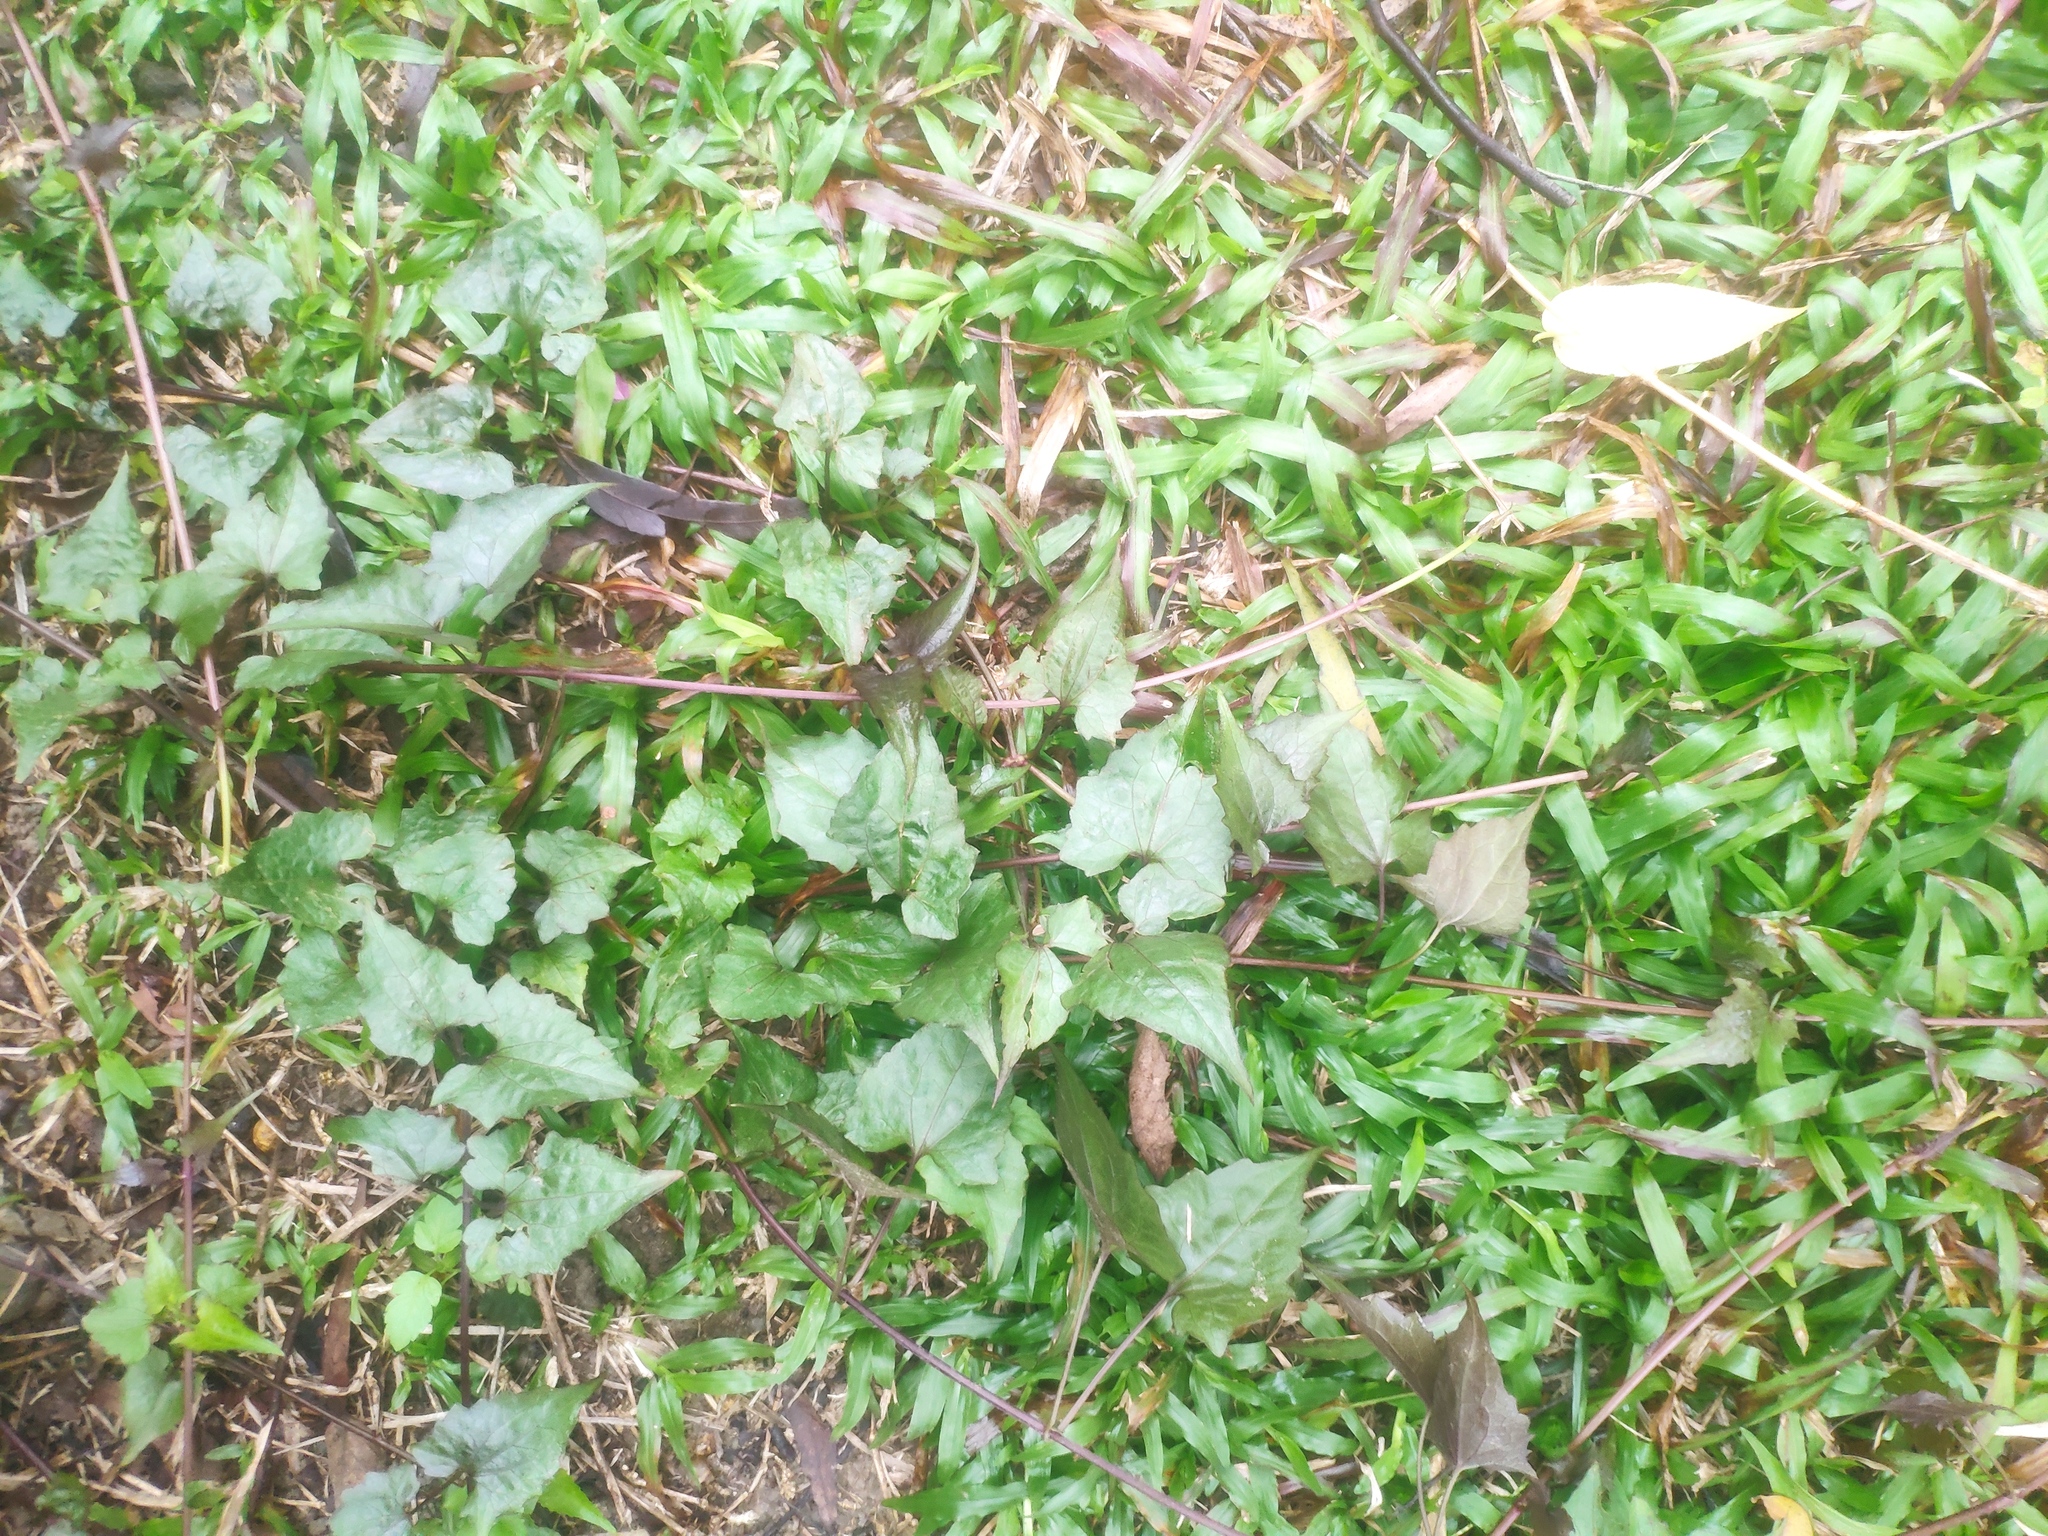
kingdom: Plantae
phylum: Tracheophyta
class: Magnoliopsida
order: Asterales
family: Asteraceae
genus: Mikania
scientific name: Mikania micrantha
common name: Mile-a-minute
